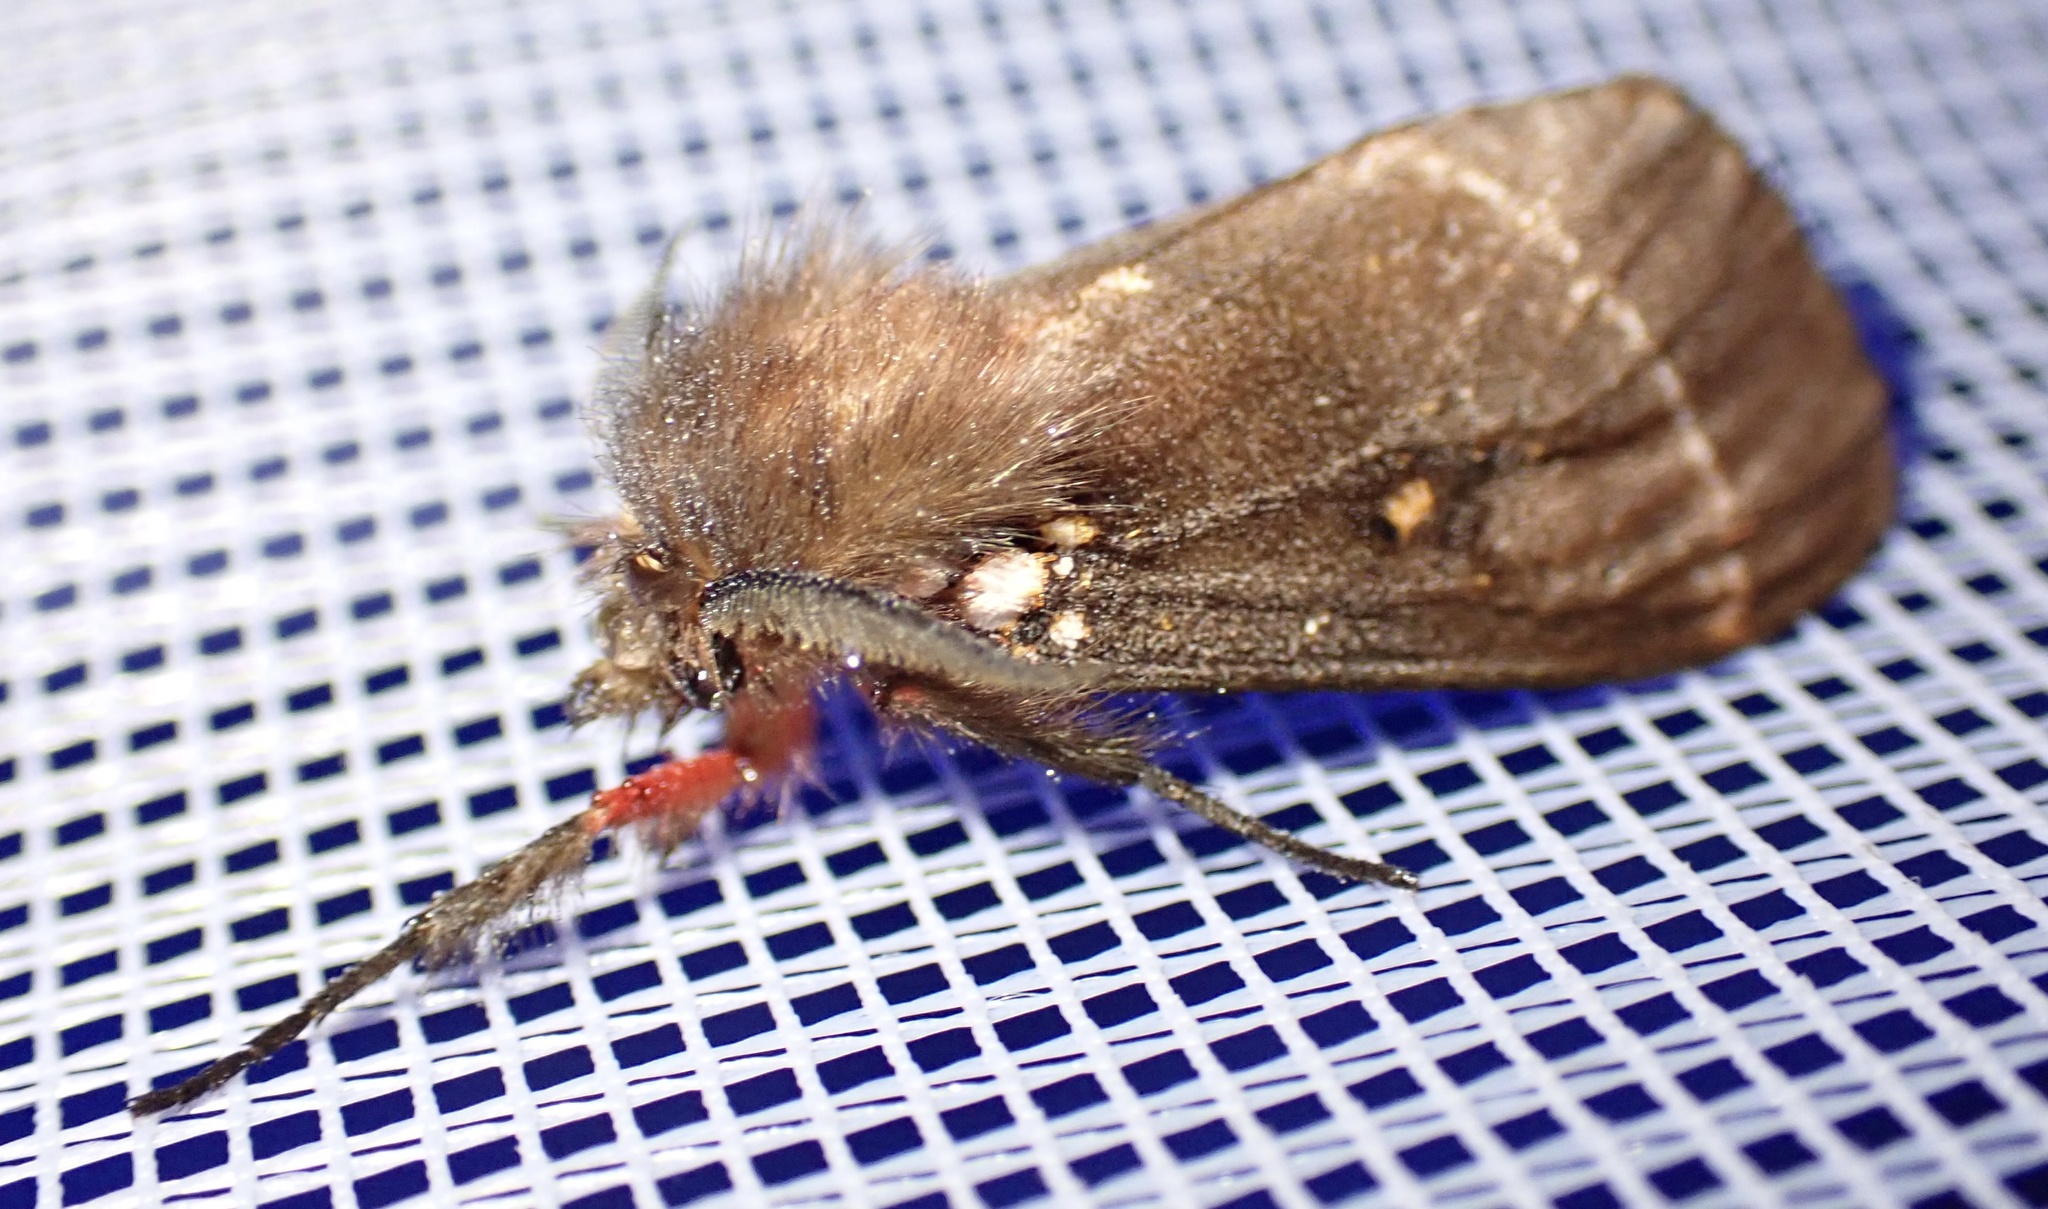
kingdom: Animalia
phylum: Arthropoda
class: Insecta
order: Lepidoptera
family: Erebidae
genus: Lymantria
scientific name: Lymantria Morasa modesta
